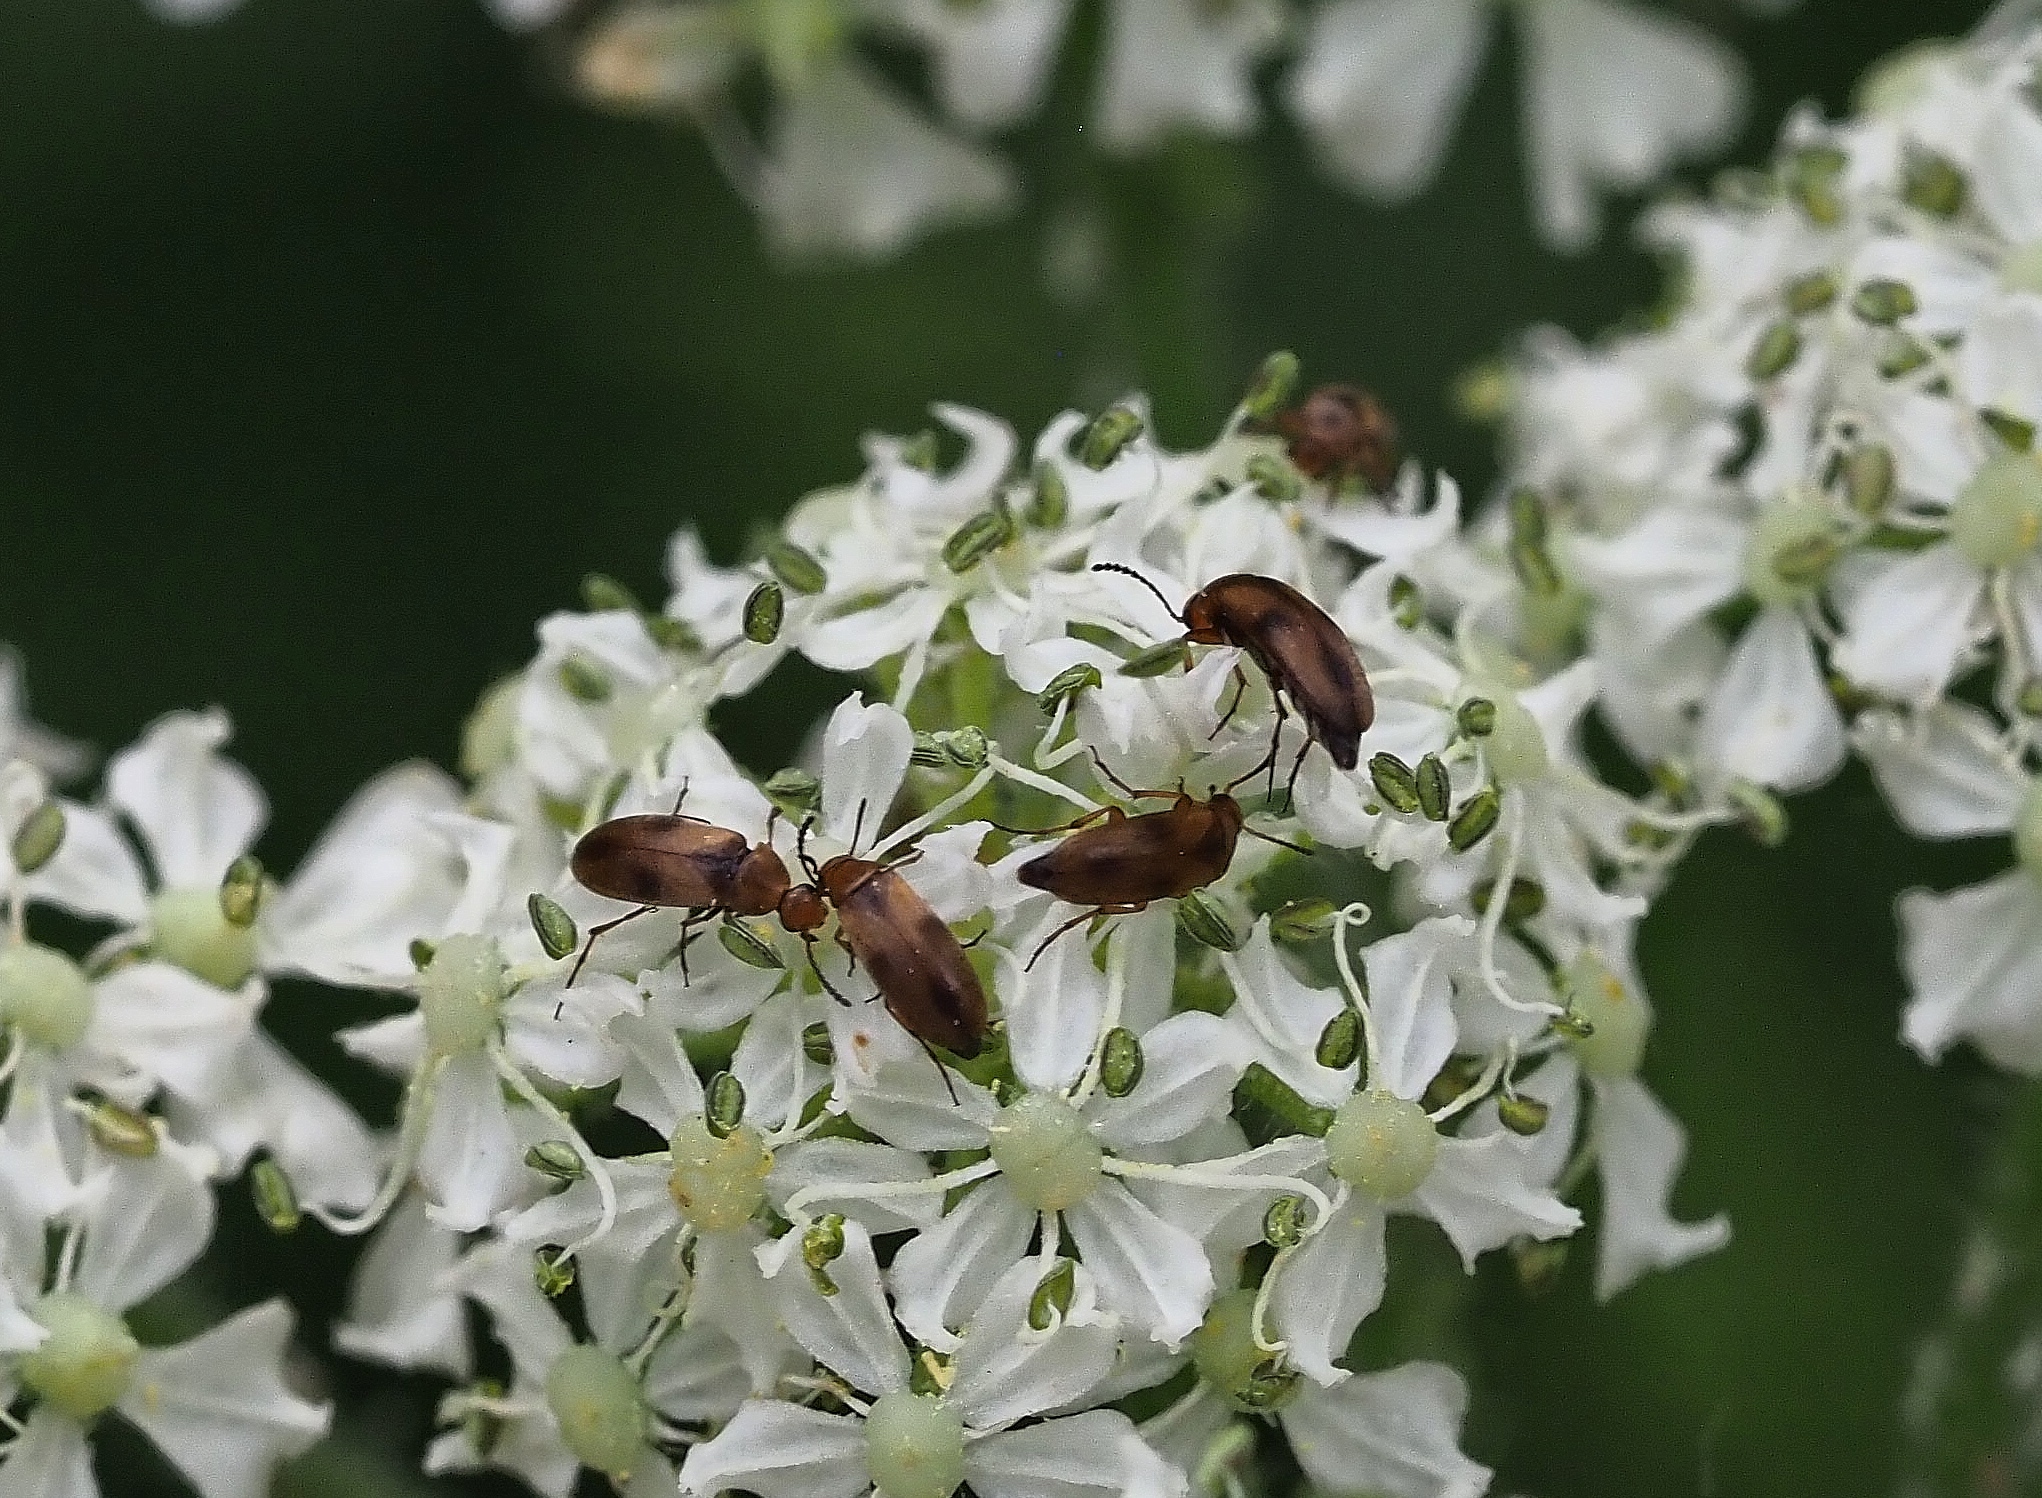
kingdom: Animalia
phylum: Arthropoda
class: Insecta
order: Coleoptera
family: Scraptiidae
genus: Anaspis
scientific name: Anaspis maculata
